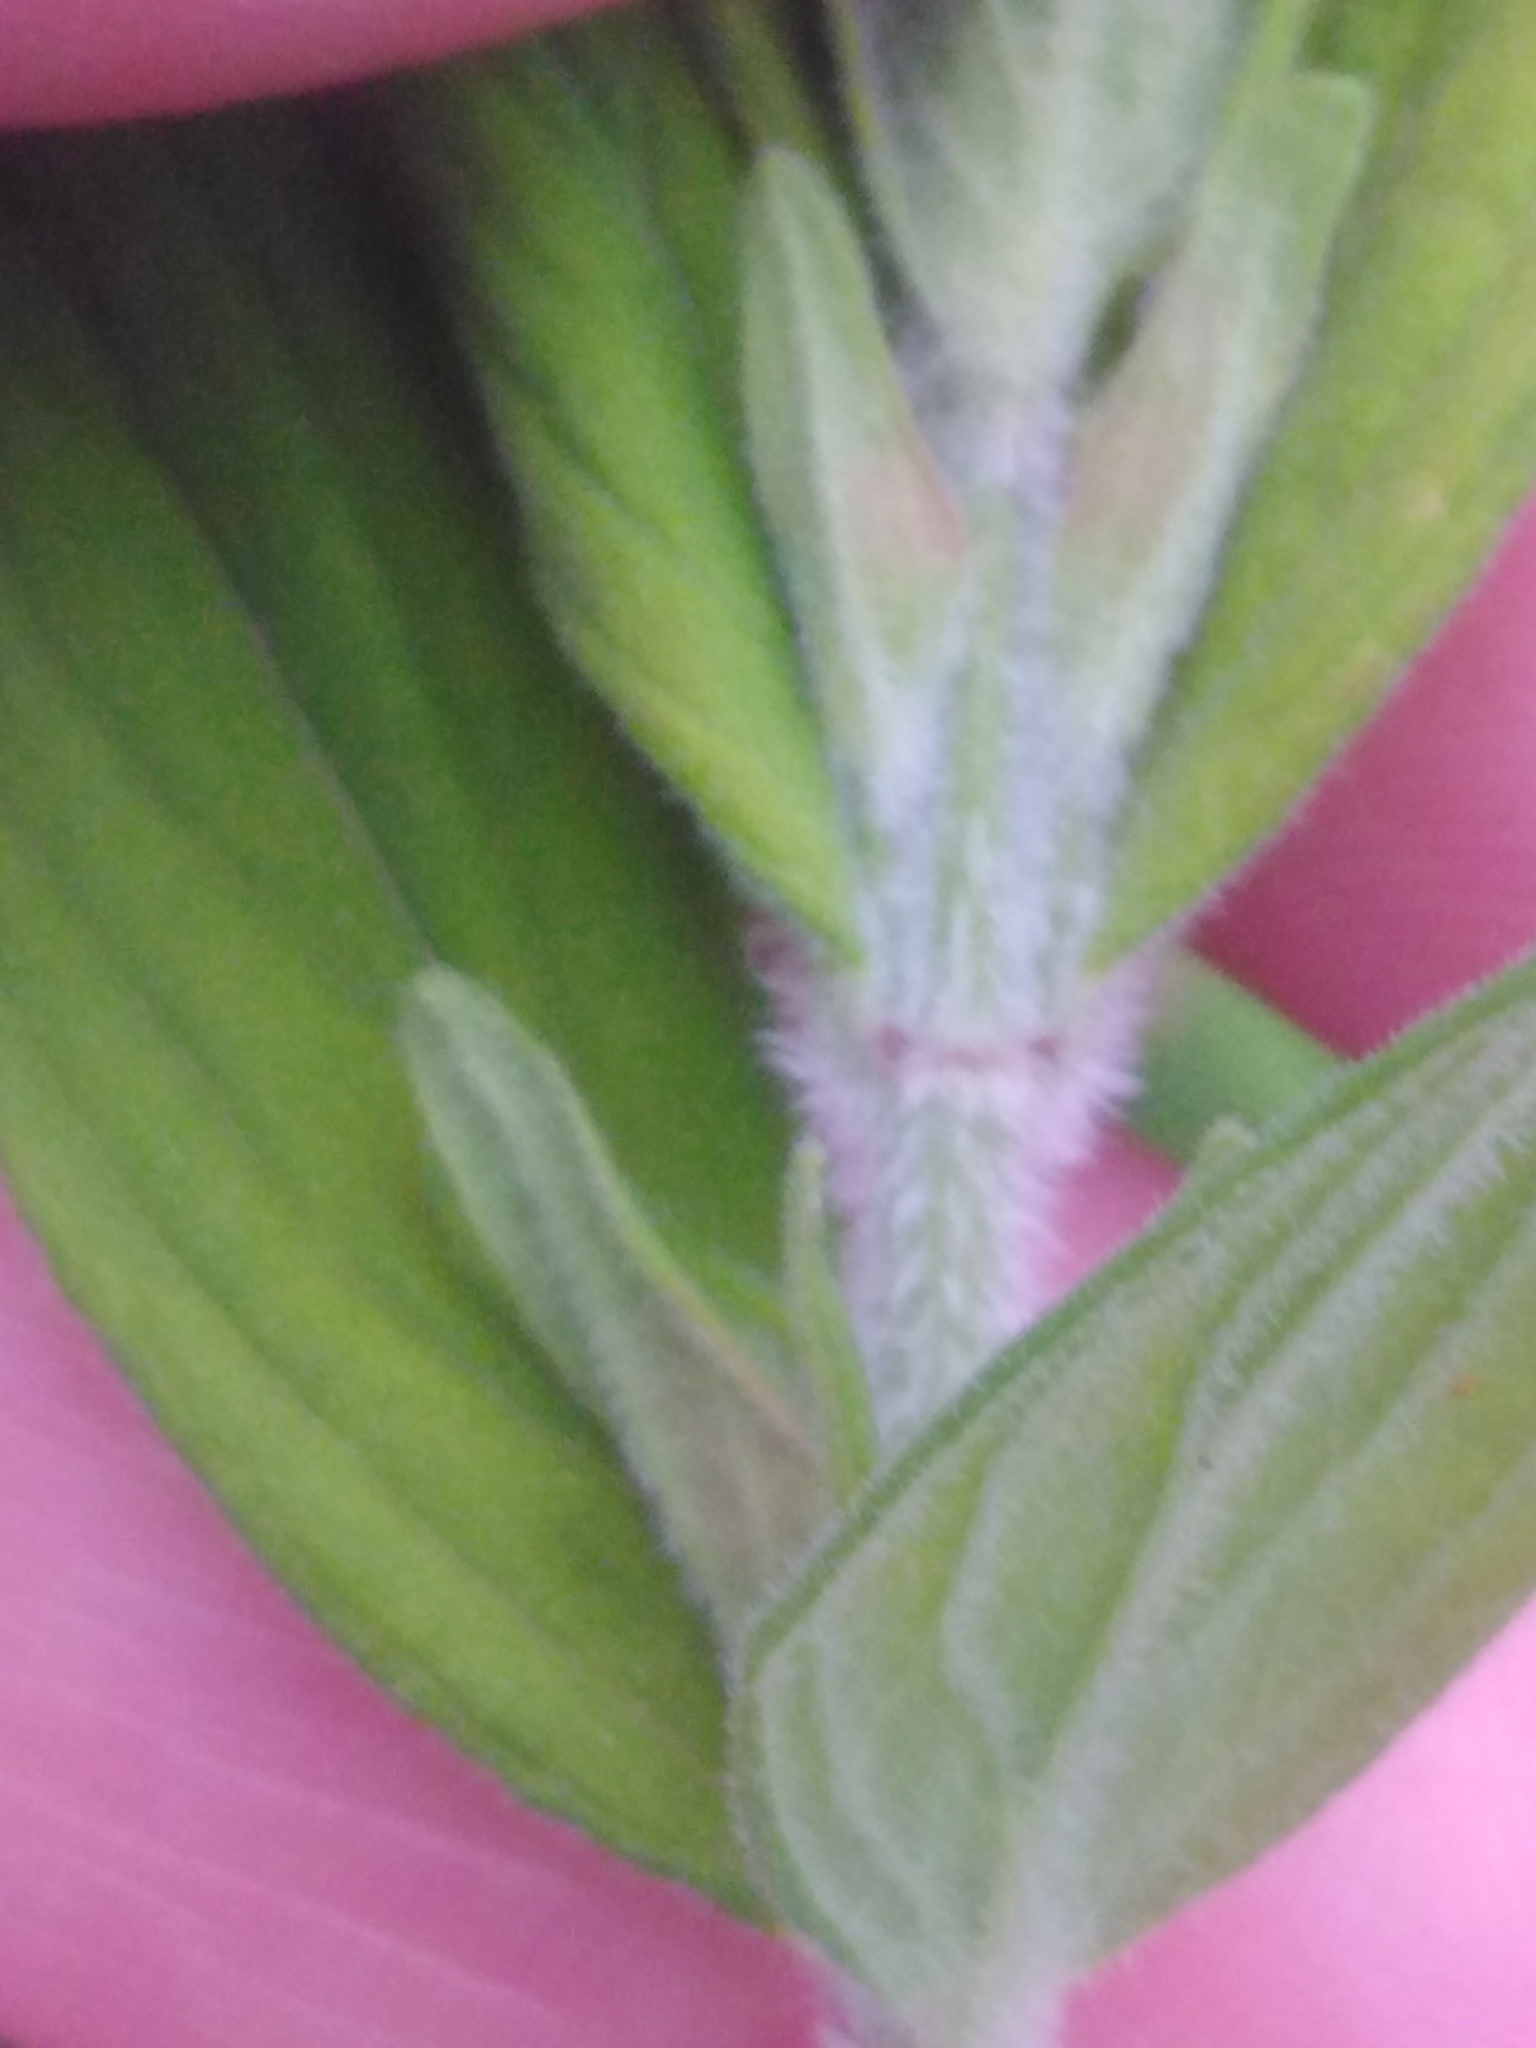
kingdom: Plantae
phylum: Tracheophyta
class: Magnoliopsida
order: Malpighiales
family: Hypericaceae
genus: Hypericum
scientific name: Hypericum hirsutum
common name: Hairy st. john's-wort
